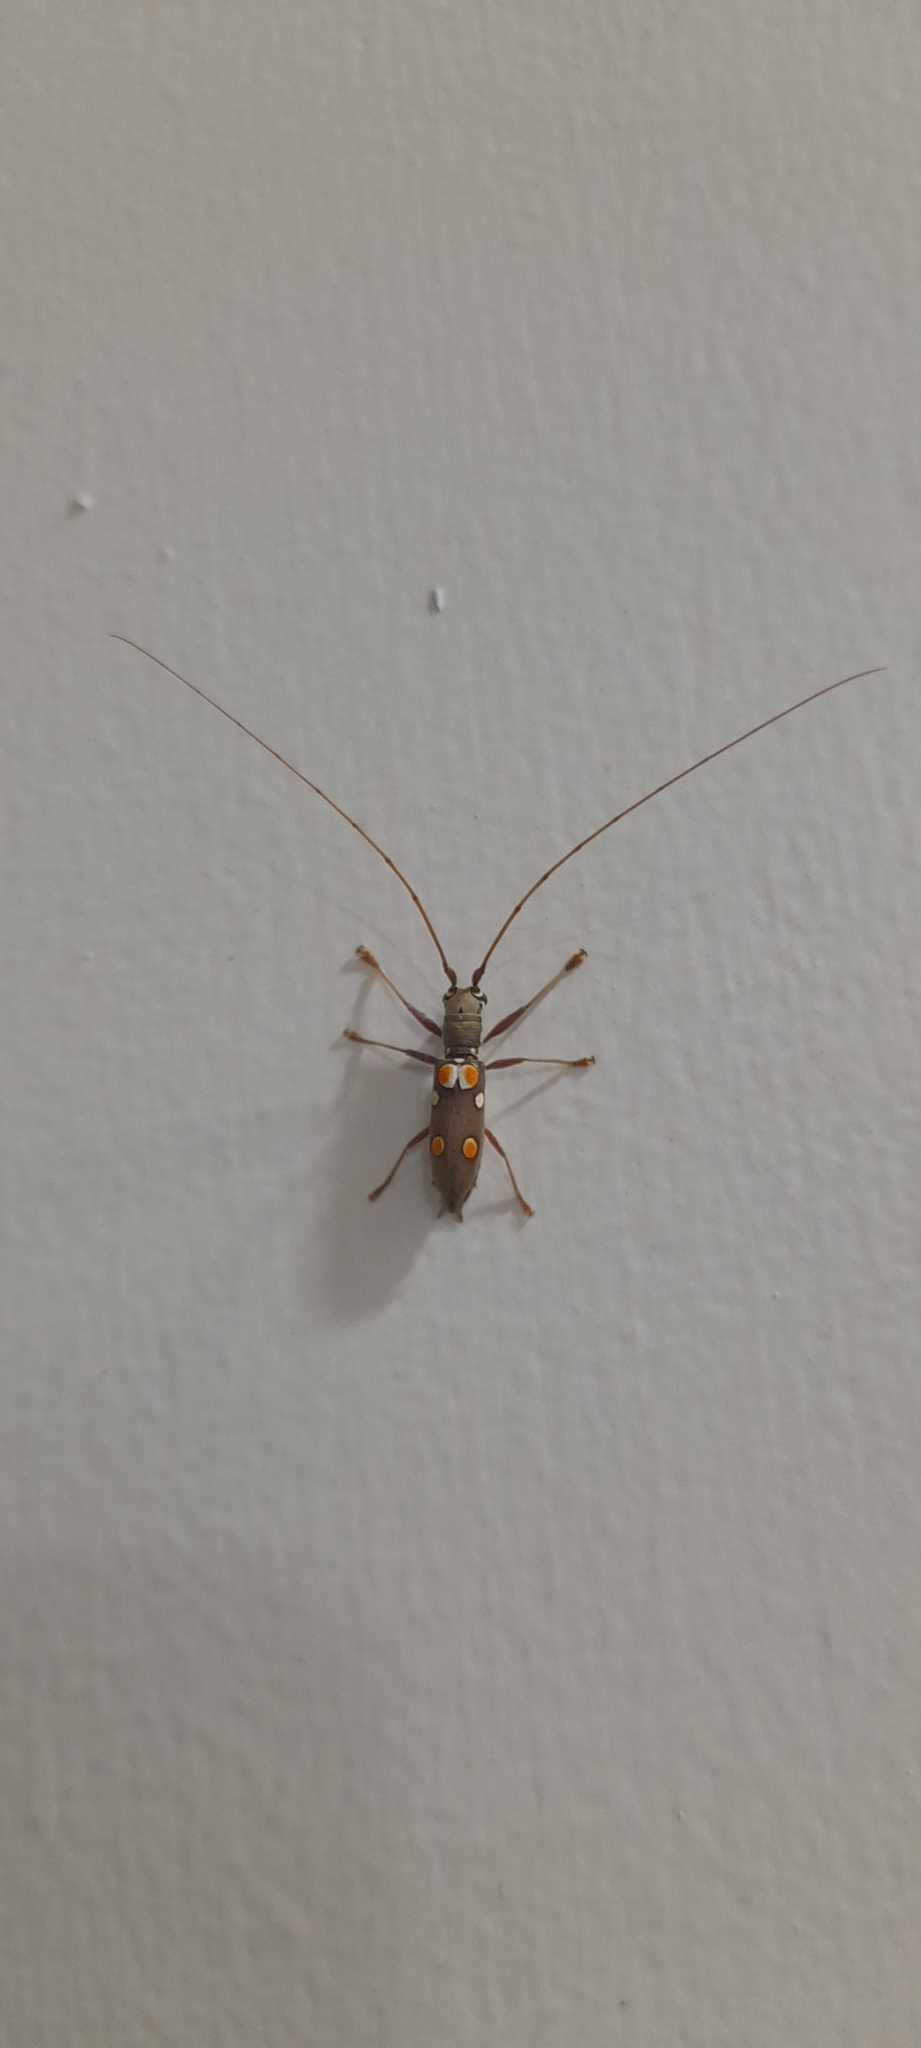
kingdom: Animalia
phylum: Arthropoda
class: Insecta
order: Coleoptera
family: Cerambycidae
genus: Olenecamptus
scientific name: Olenecamptus bilobus
